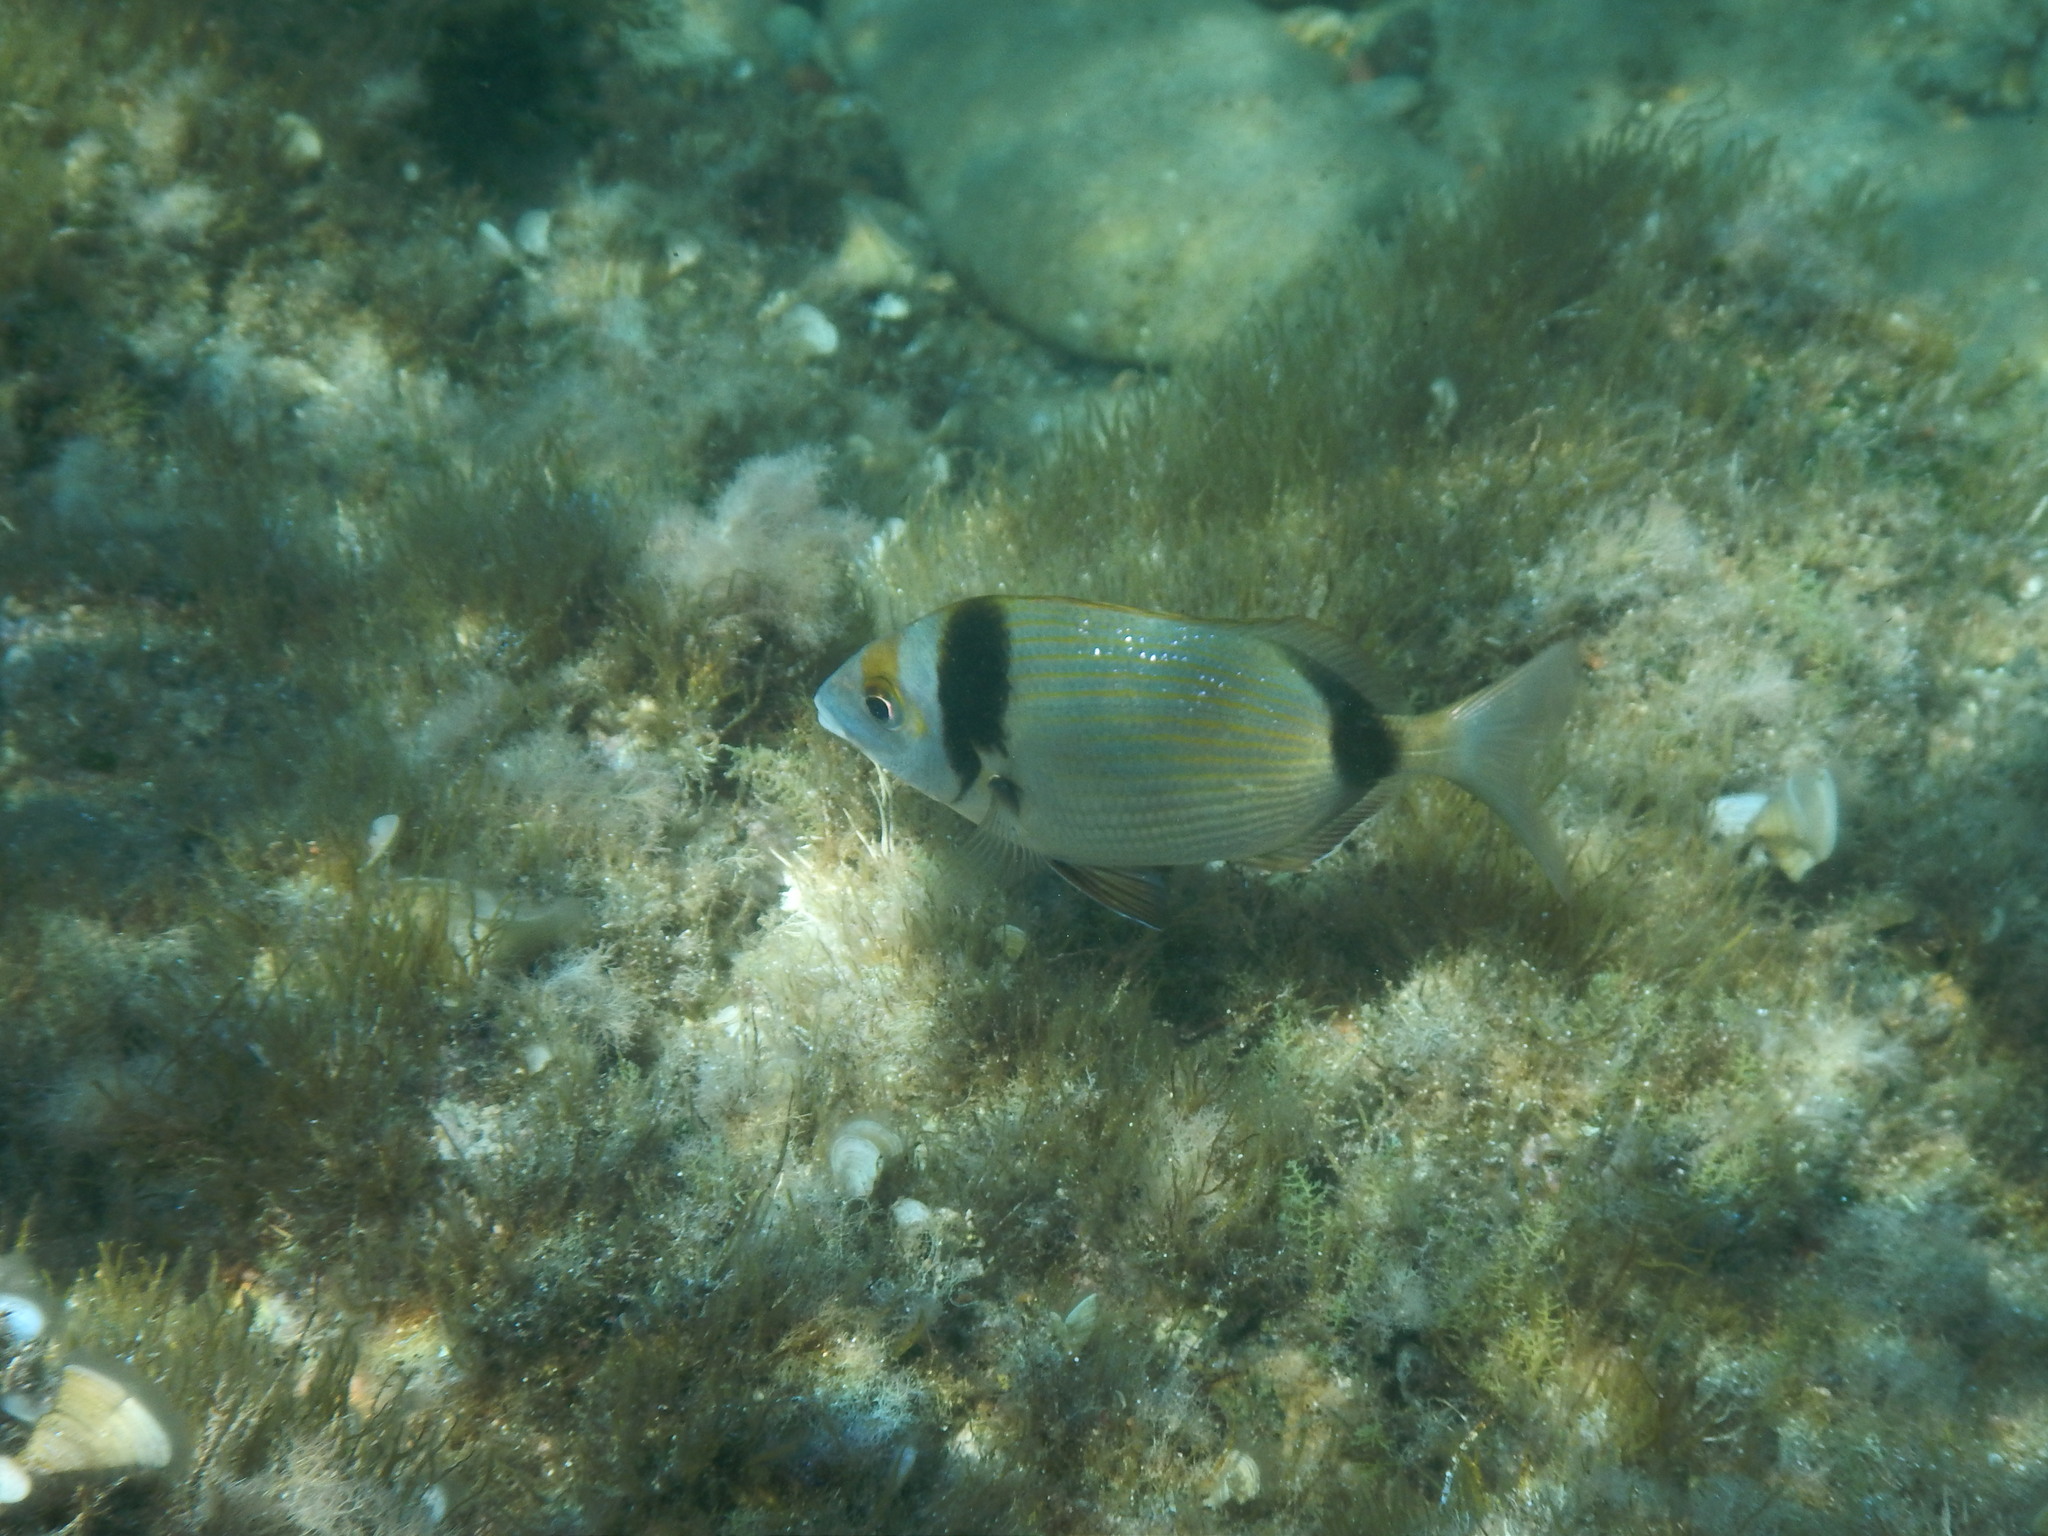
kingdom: Animalia
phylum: Chordata
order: Perciformes
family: Sparidae
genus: Diplodus
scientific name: Diplodus vulgaris
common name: Common two-banded seabream
